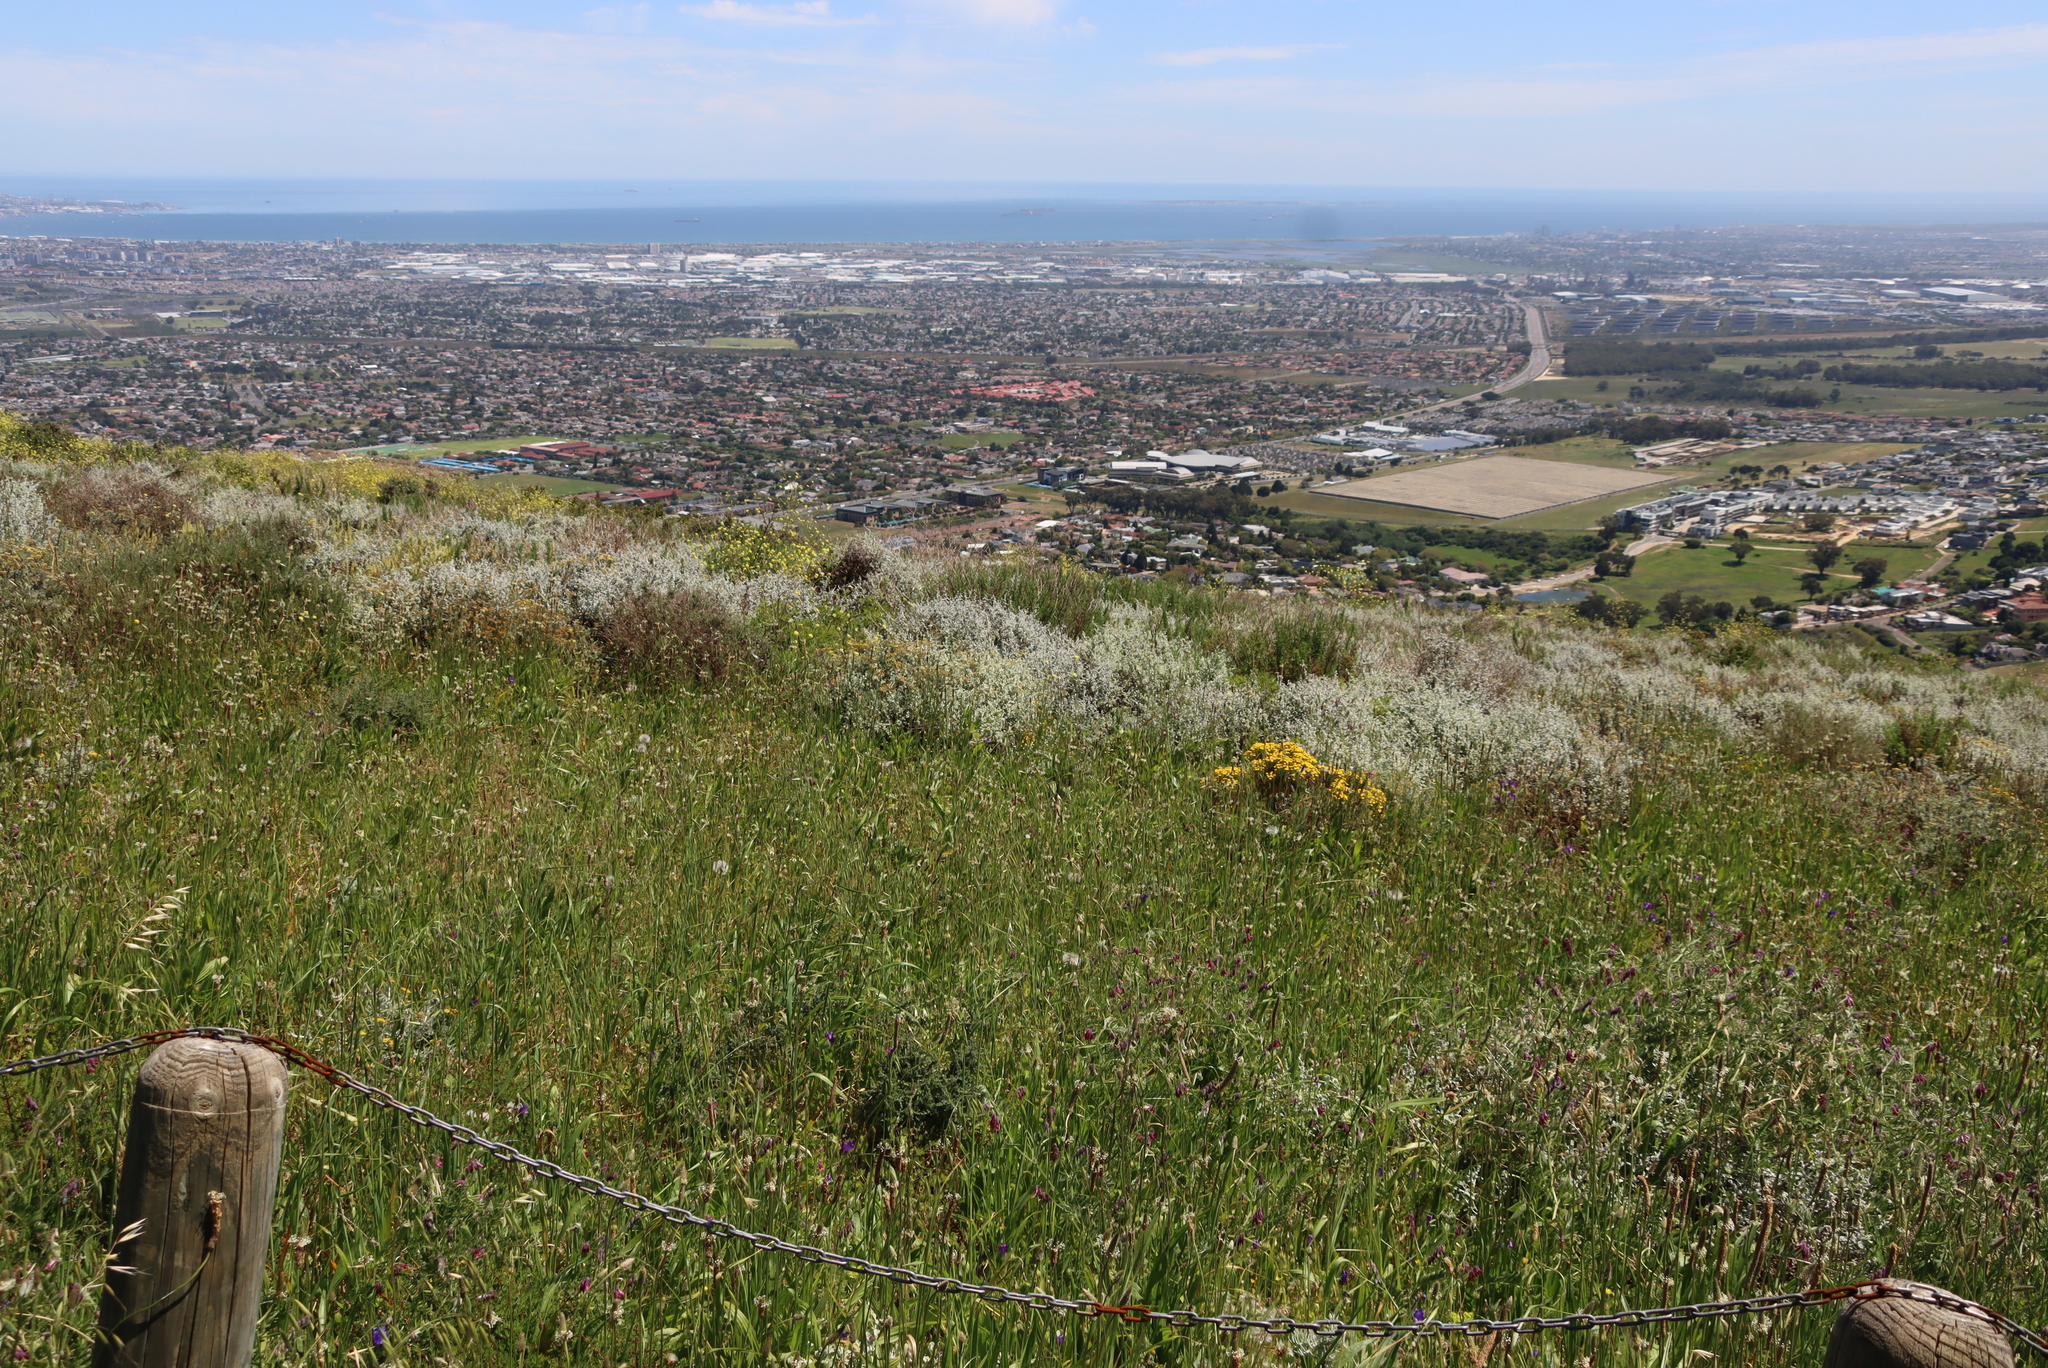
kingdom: Plantae
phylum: Tracheophyta
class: Magnoliopsida
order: Fabales
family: Fabaceae
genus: Vicia
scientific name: Vicia benghalensis
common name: Purple vetch
